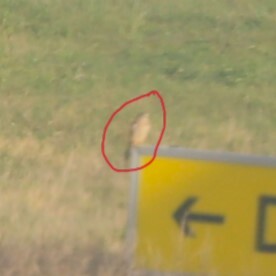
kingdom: Animalia
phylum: Chordata
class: Aves
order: Falconiformes
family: Falconidae
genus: Falco
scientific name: Falco tinnunculus
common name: Common kestrel
